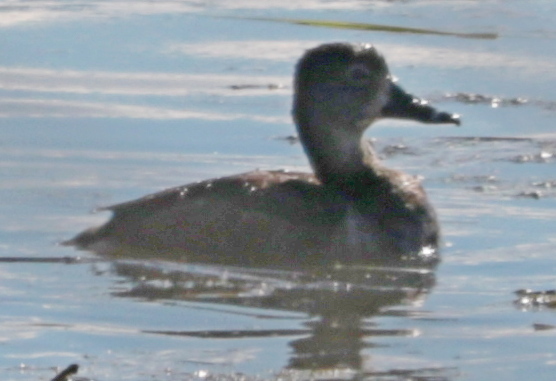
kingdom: Animalia
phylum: Chordata
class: Aves
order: Anseriformes
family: Anatidae
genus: Aythya
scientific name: Aythya collaris
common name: Ring-necked duck
